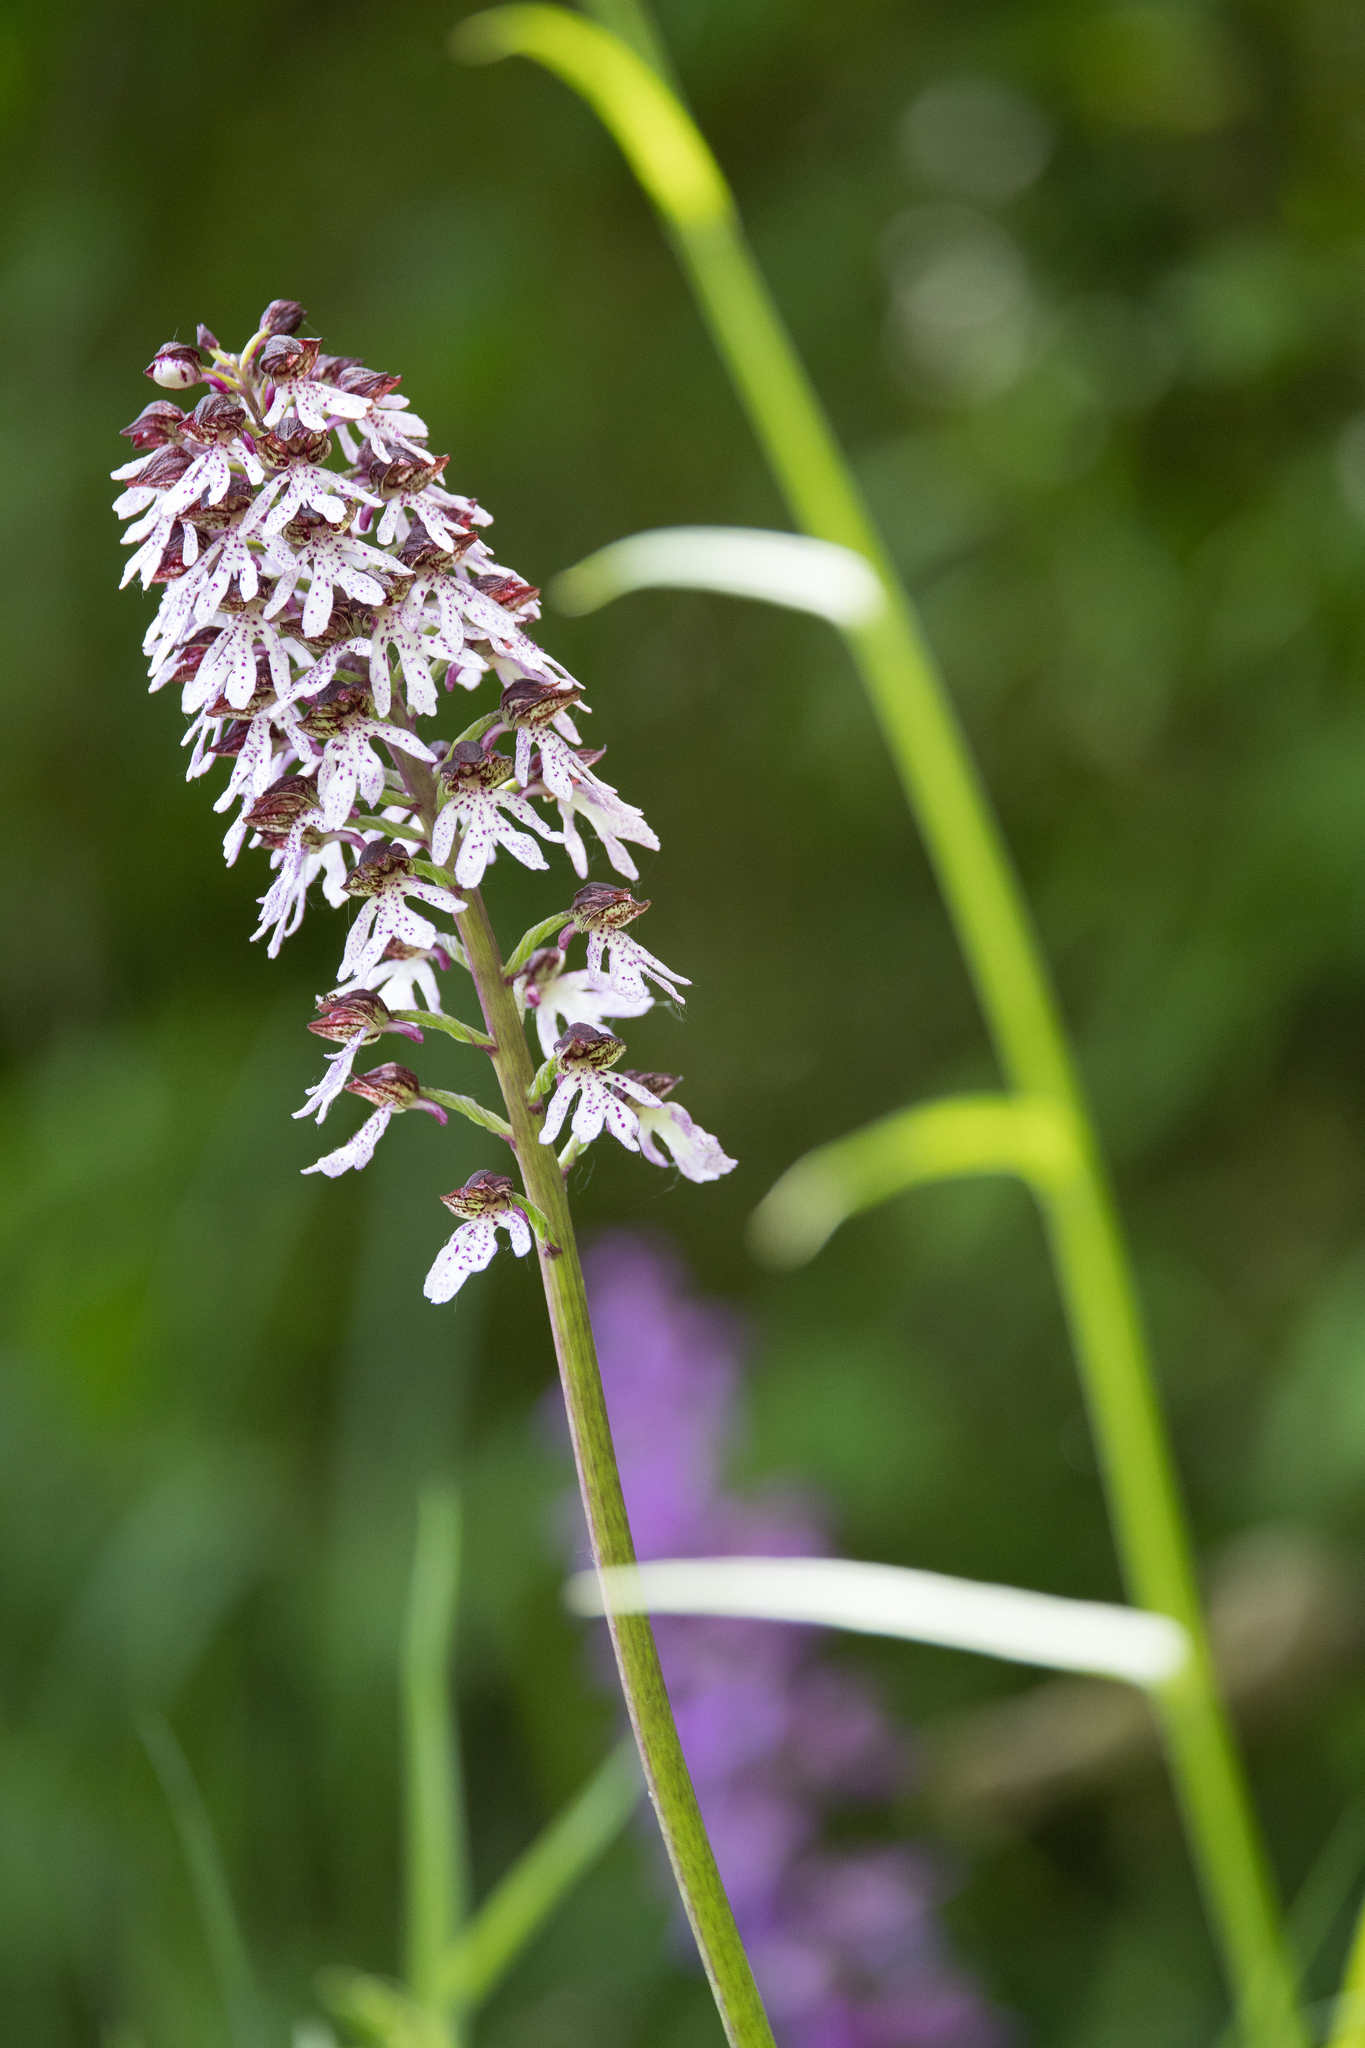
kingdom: Plantae
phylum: Tracheophyta
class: Liliopsida
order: Asparagales
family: Orchidaceae
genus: Orchis
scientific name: Orchis purpurea
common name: Lady orchid
